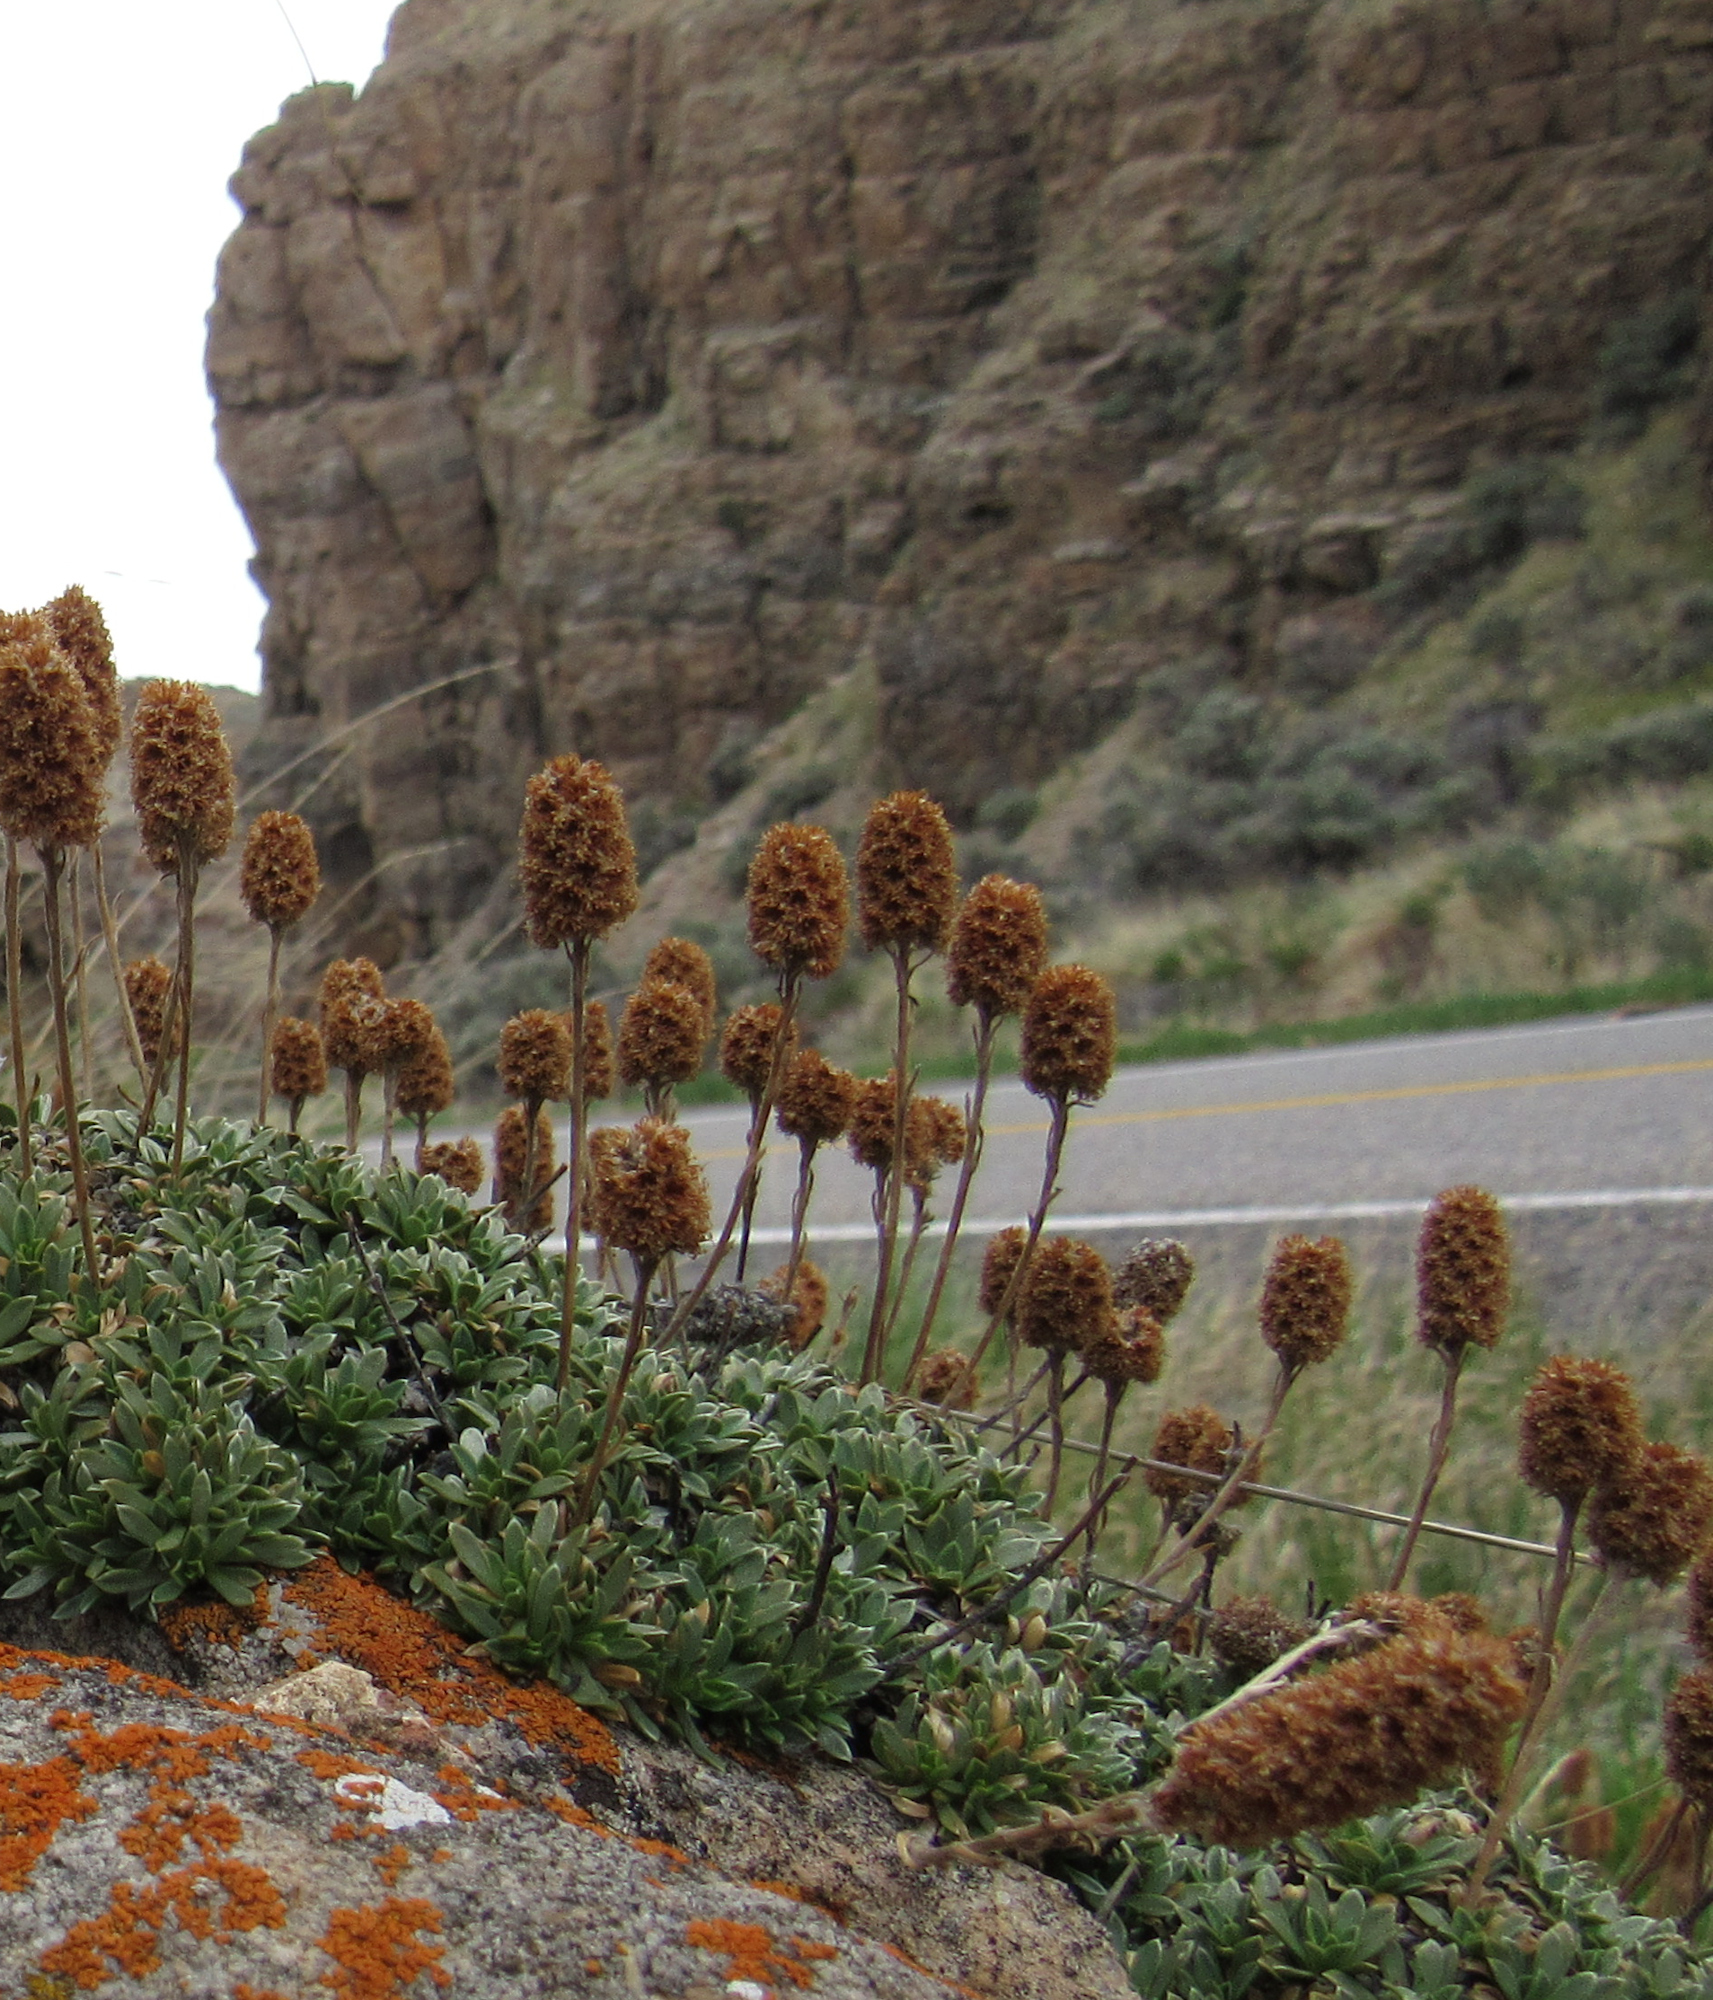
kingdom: Plantae
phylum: Tracheophyta
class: Magnoliopsida
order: Rosales
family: Rosaceae
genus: Petrophytum
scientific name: Petrophytum caespitosum
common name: Mat rockspirea
